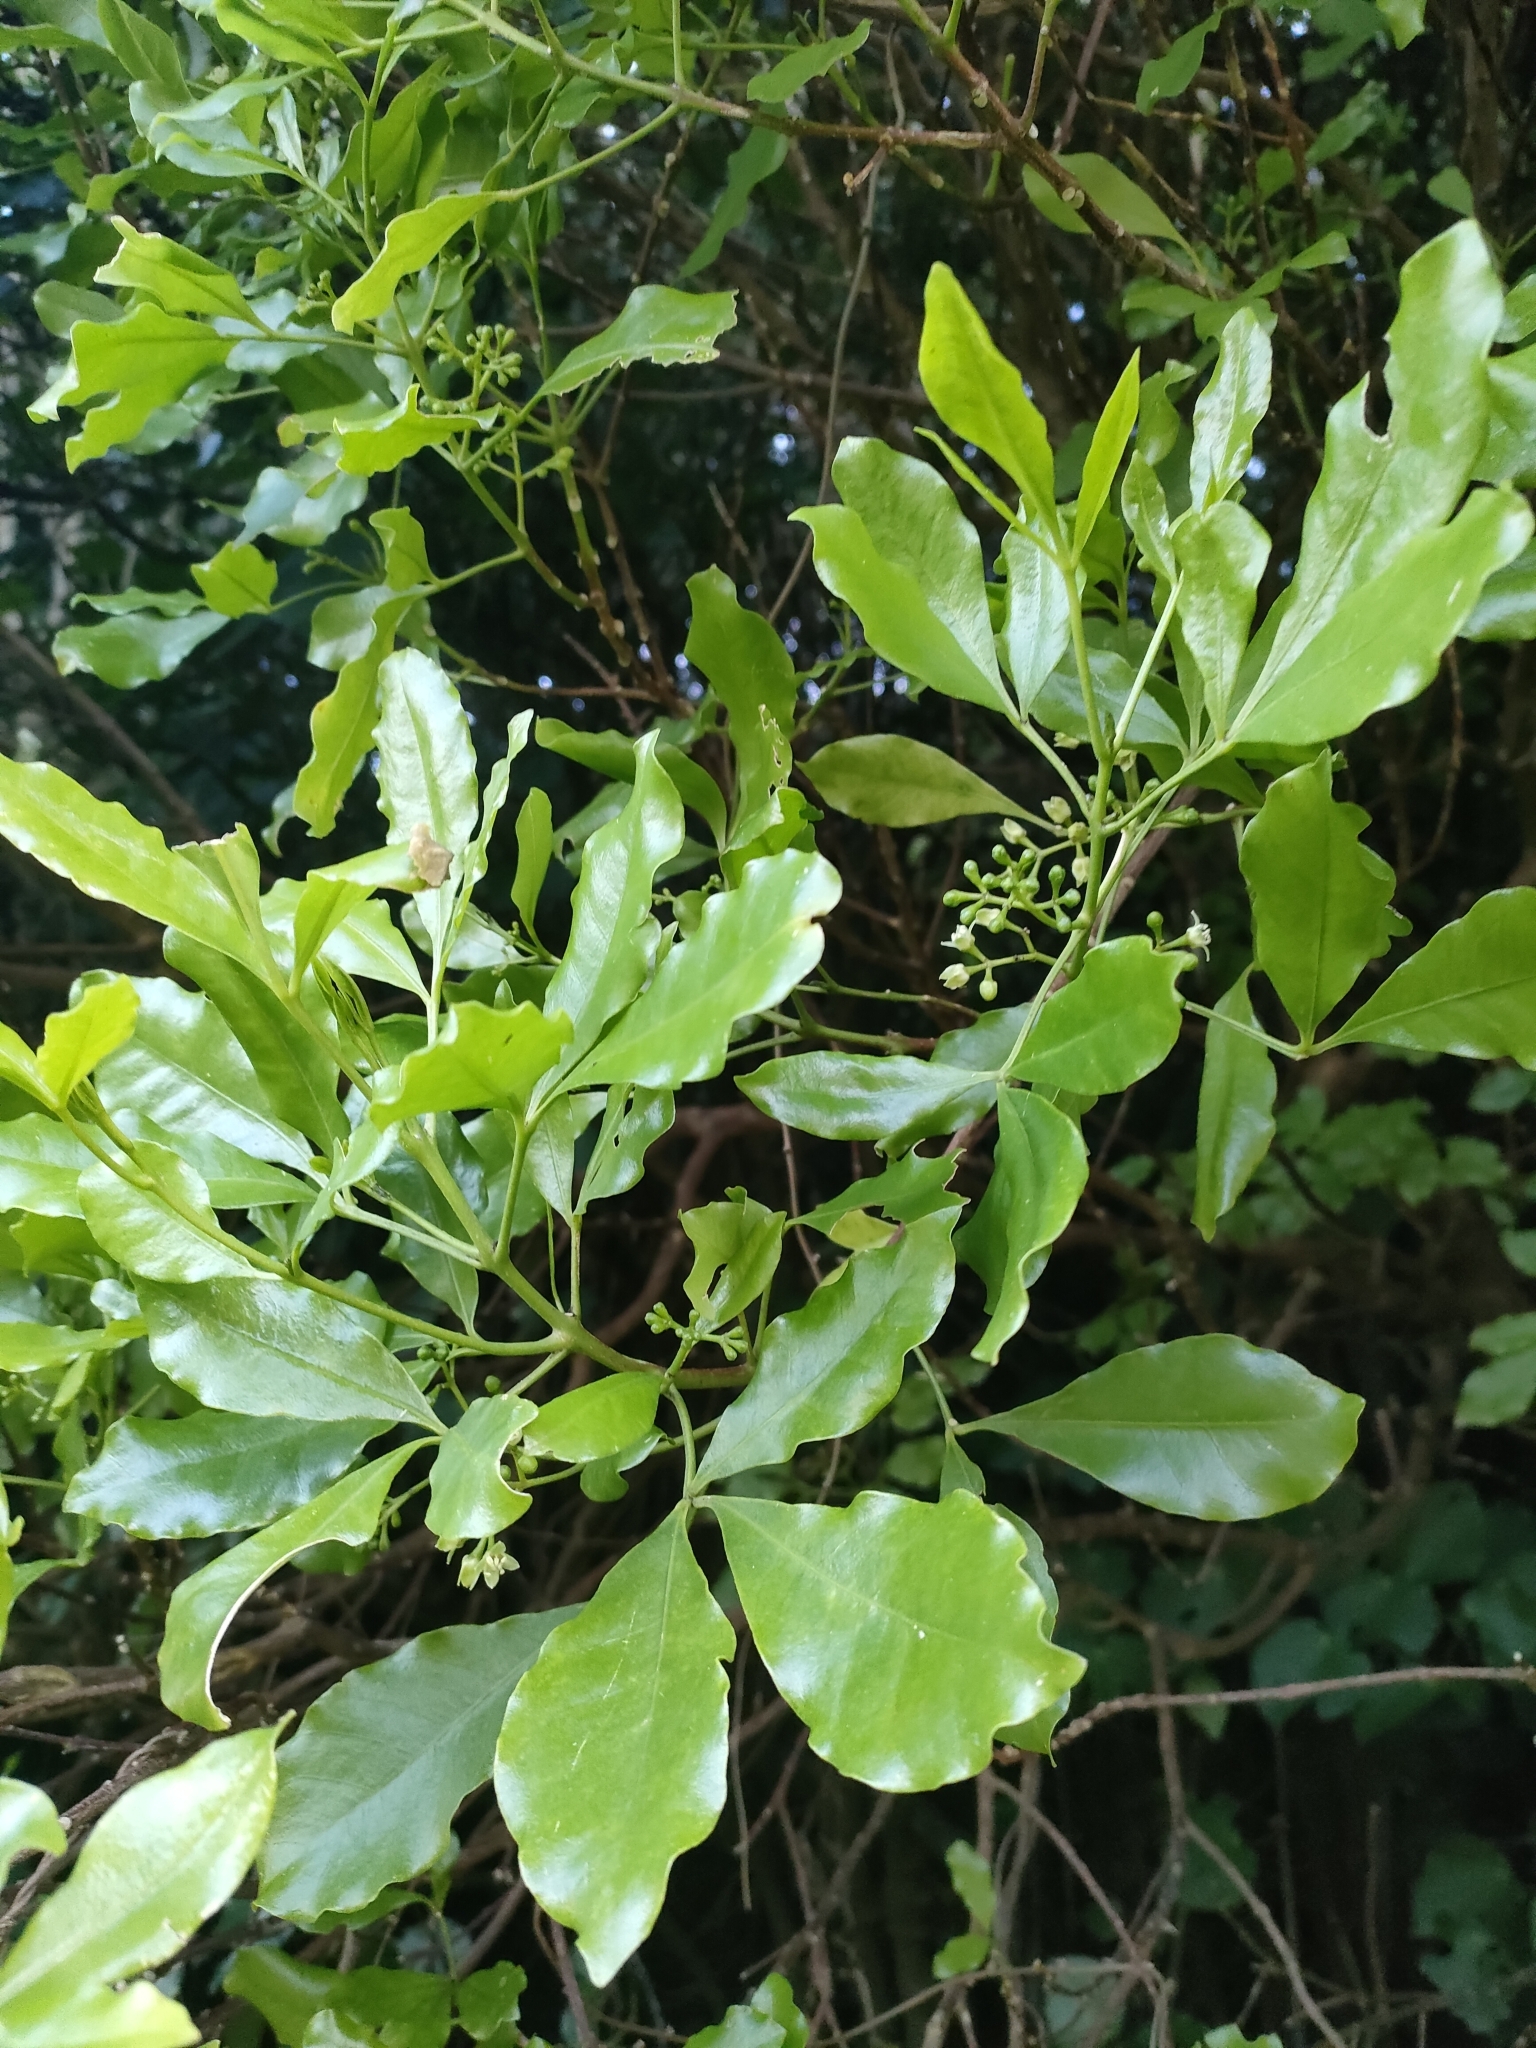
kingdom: Plantae
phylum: Tracheophyta
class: Magnoliopsida
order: Sapindales
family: Rutaceae
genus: Melicope
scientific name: Melicope ternata
